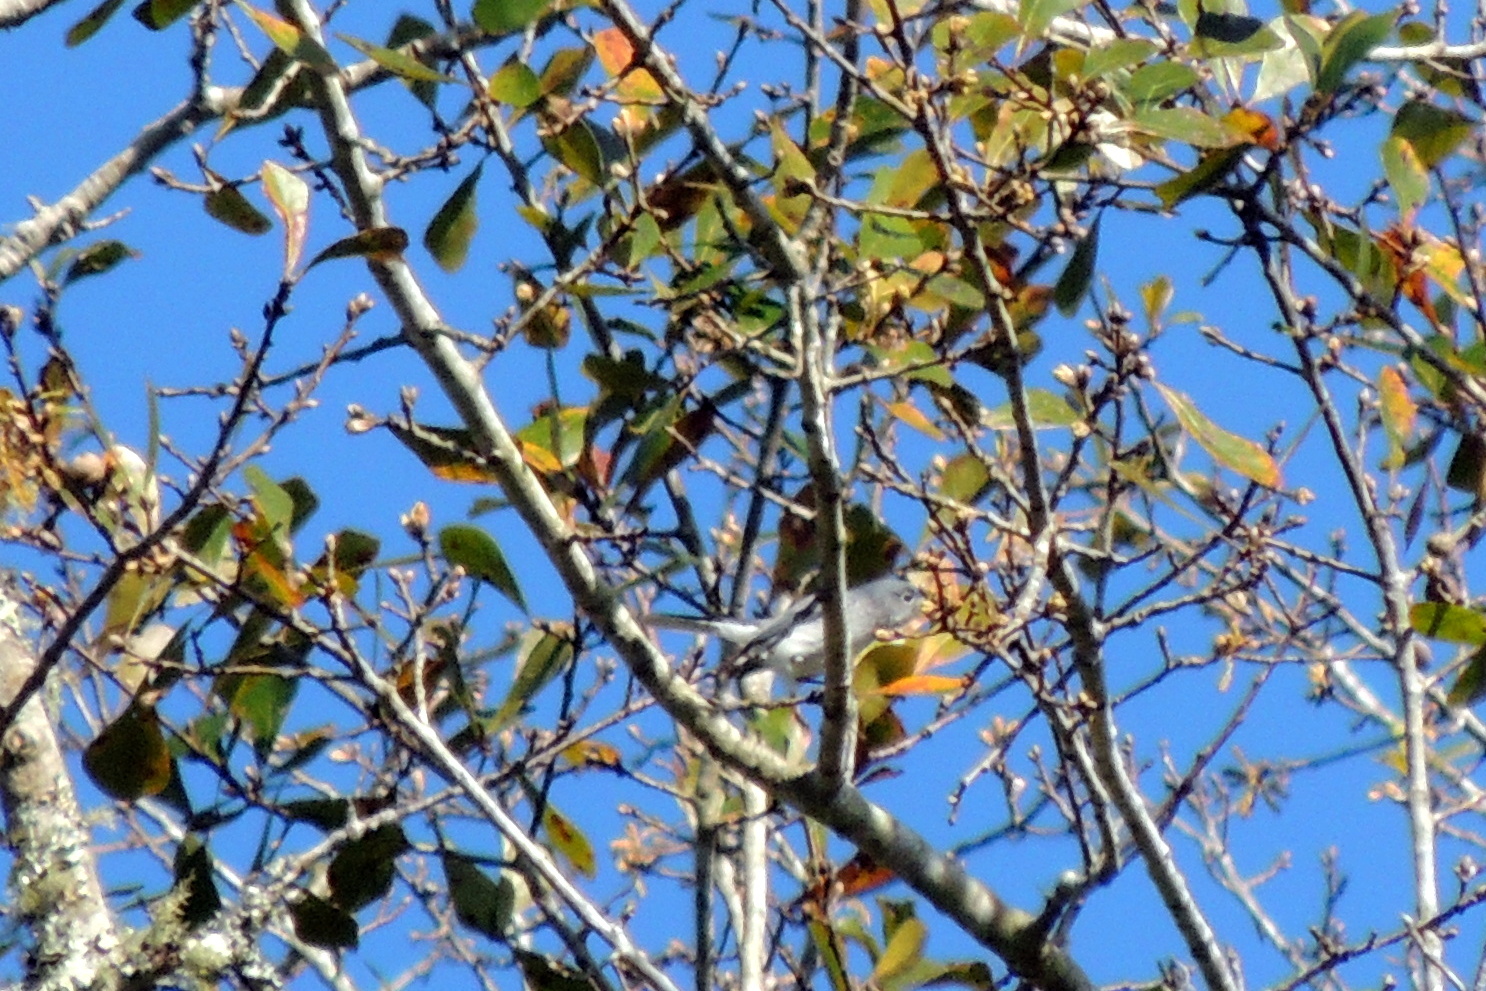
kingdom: Animalia
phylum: Chordata
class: Aves
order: Passeriformes
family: Polioptilidae
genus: Polioptila
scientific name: Polioptila caerulea
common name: Blue-gray gnatcatcher
